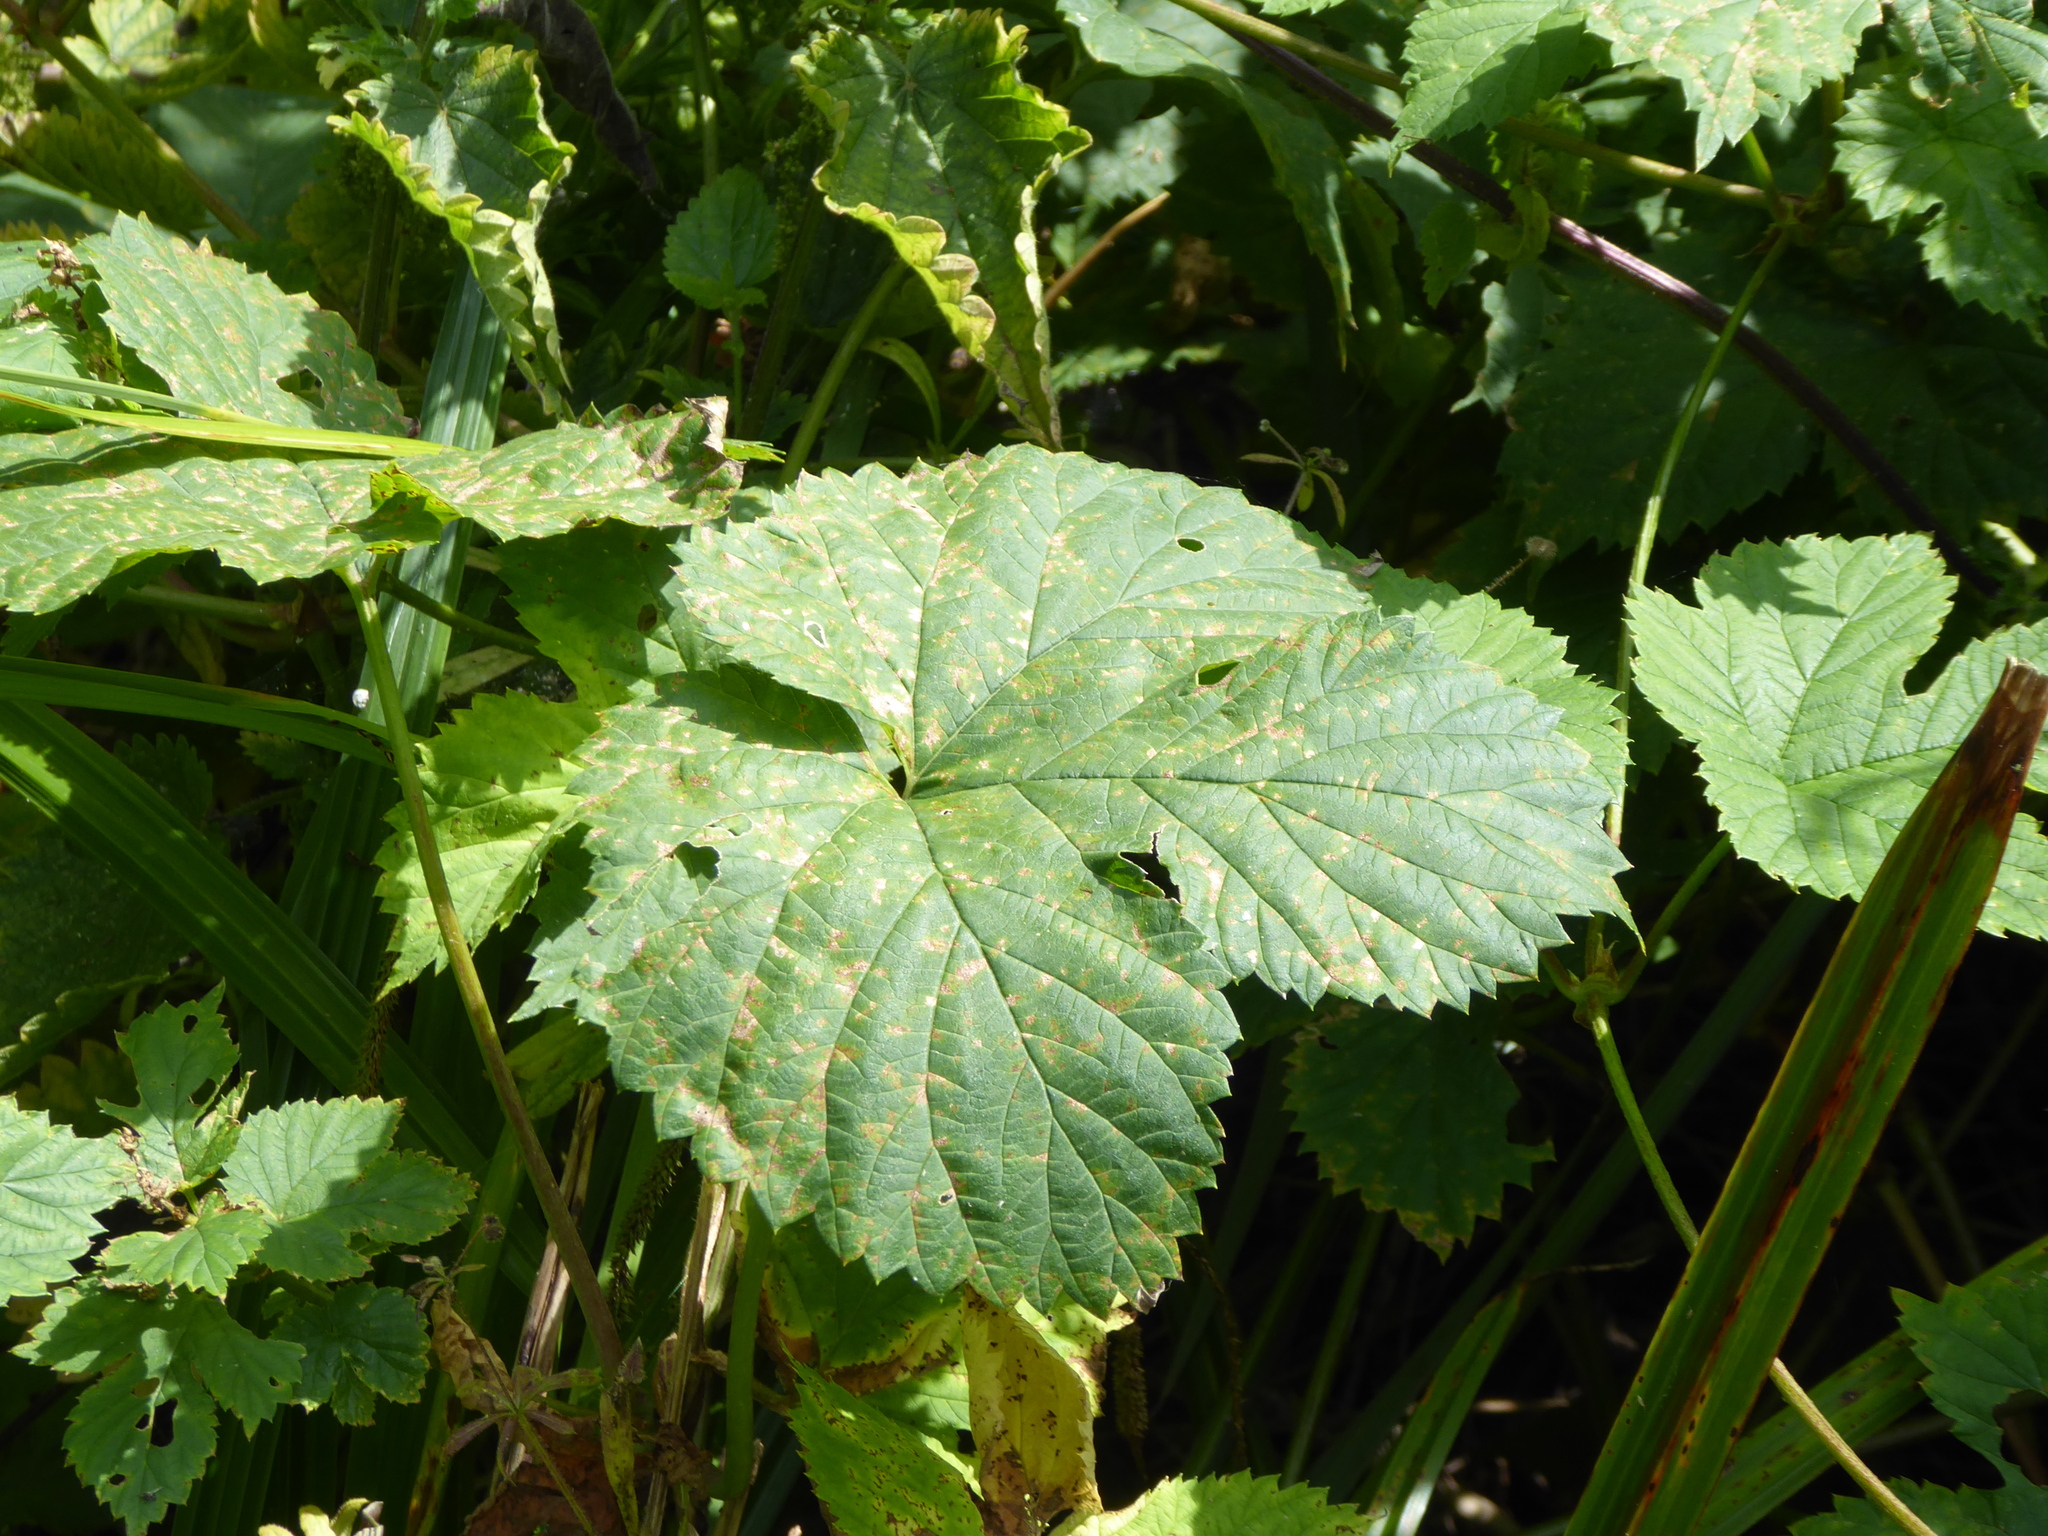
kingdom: Plantae
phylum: Tracheophyta
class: Magnoliopsida
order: Rosales
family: Cannabaceae
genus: Humulus
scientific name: Humulus lupulus
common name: Hop
